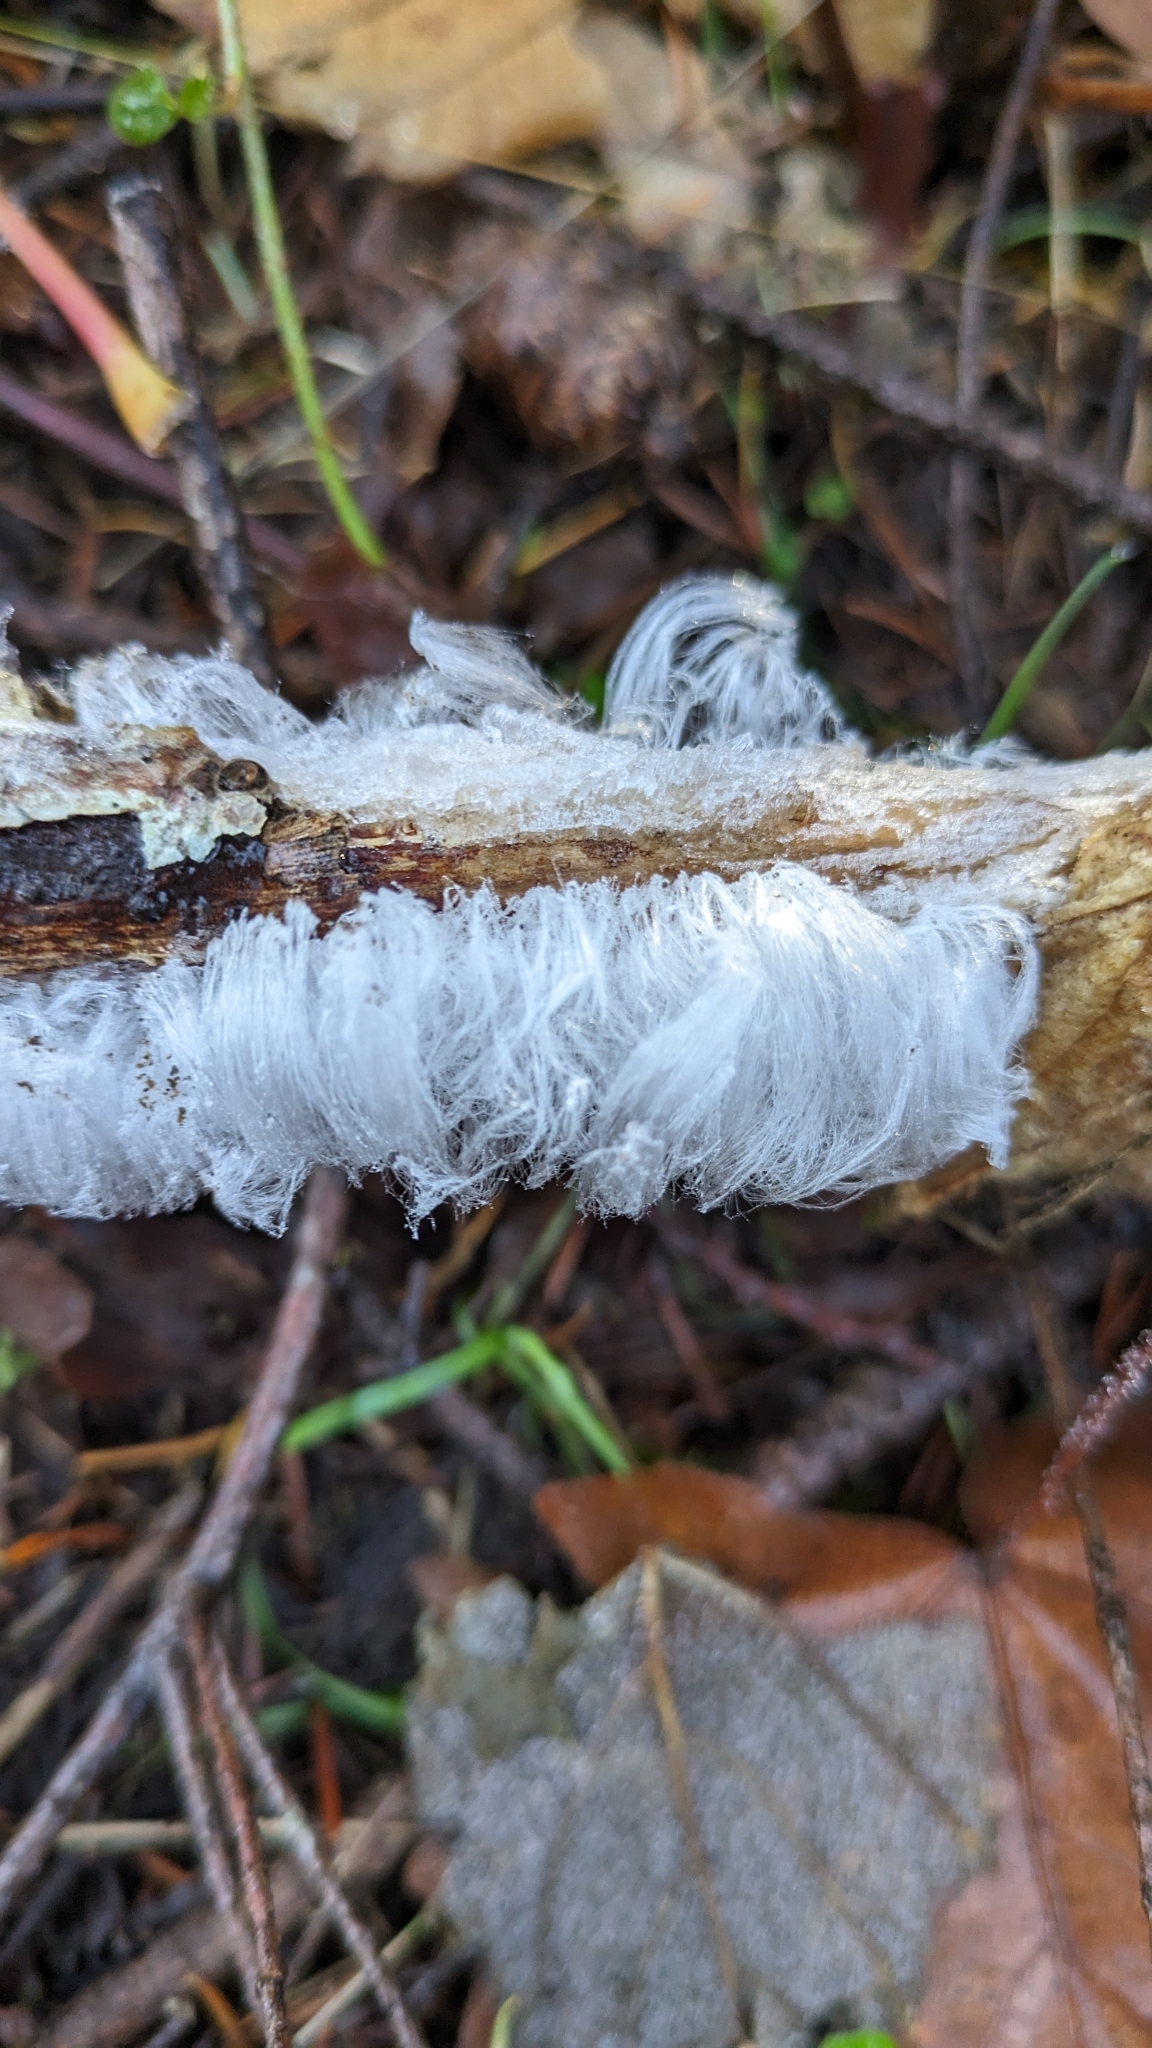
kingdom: Fungi
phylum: Basidiomycota
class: Agaricomycetes
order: Auriculariales
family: Auriculariaceae
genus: Exidiopsis
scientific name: Exidiopsis effusa
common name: Hair ice crust
